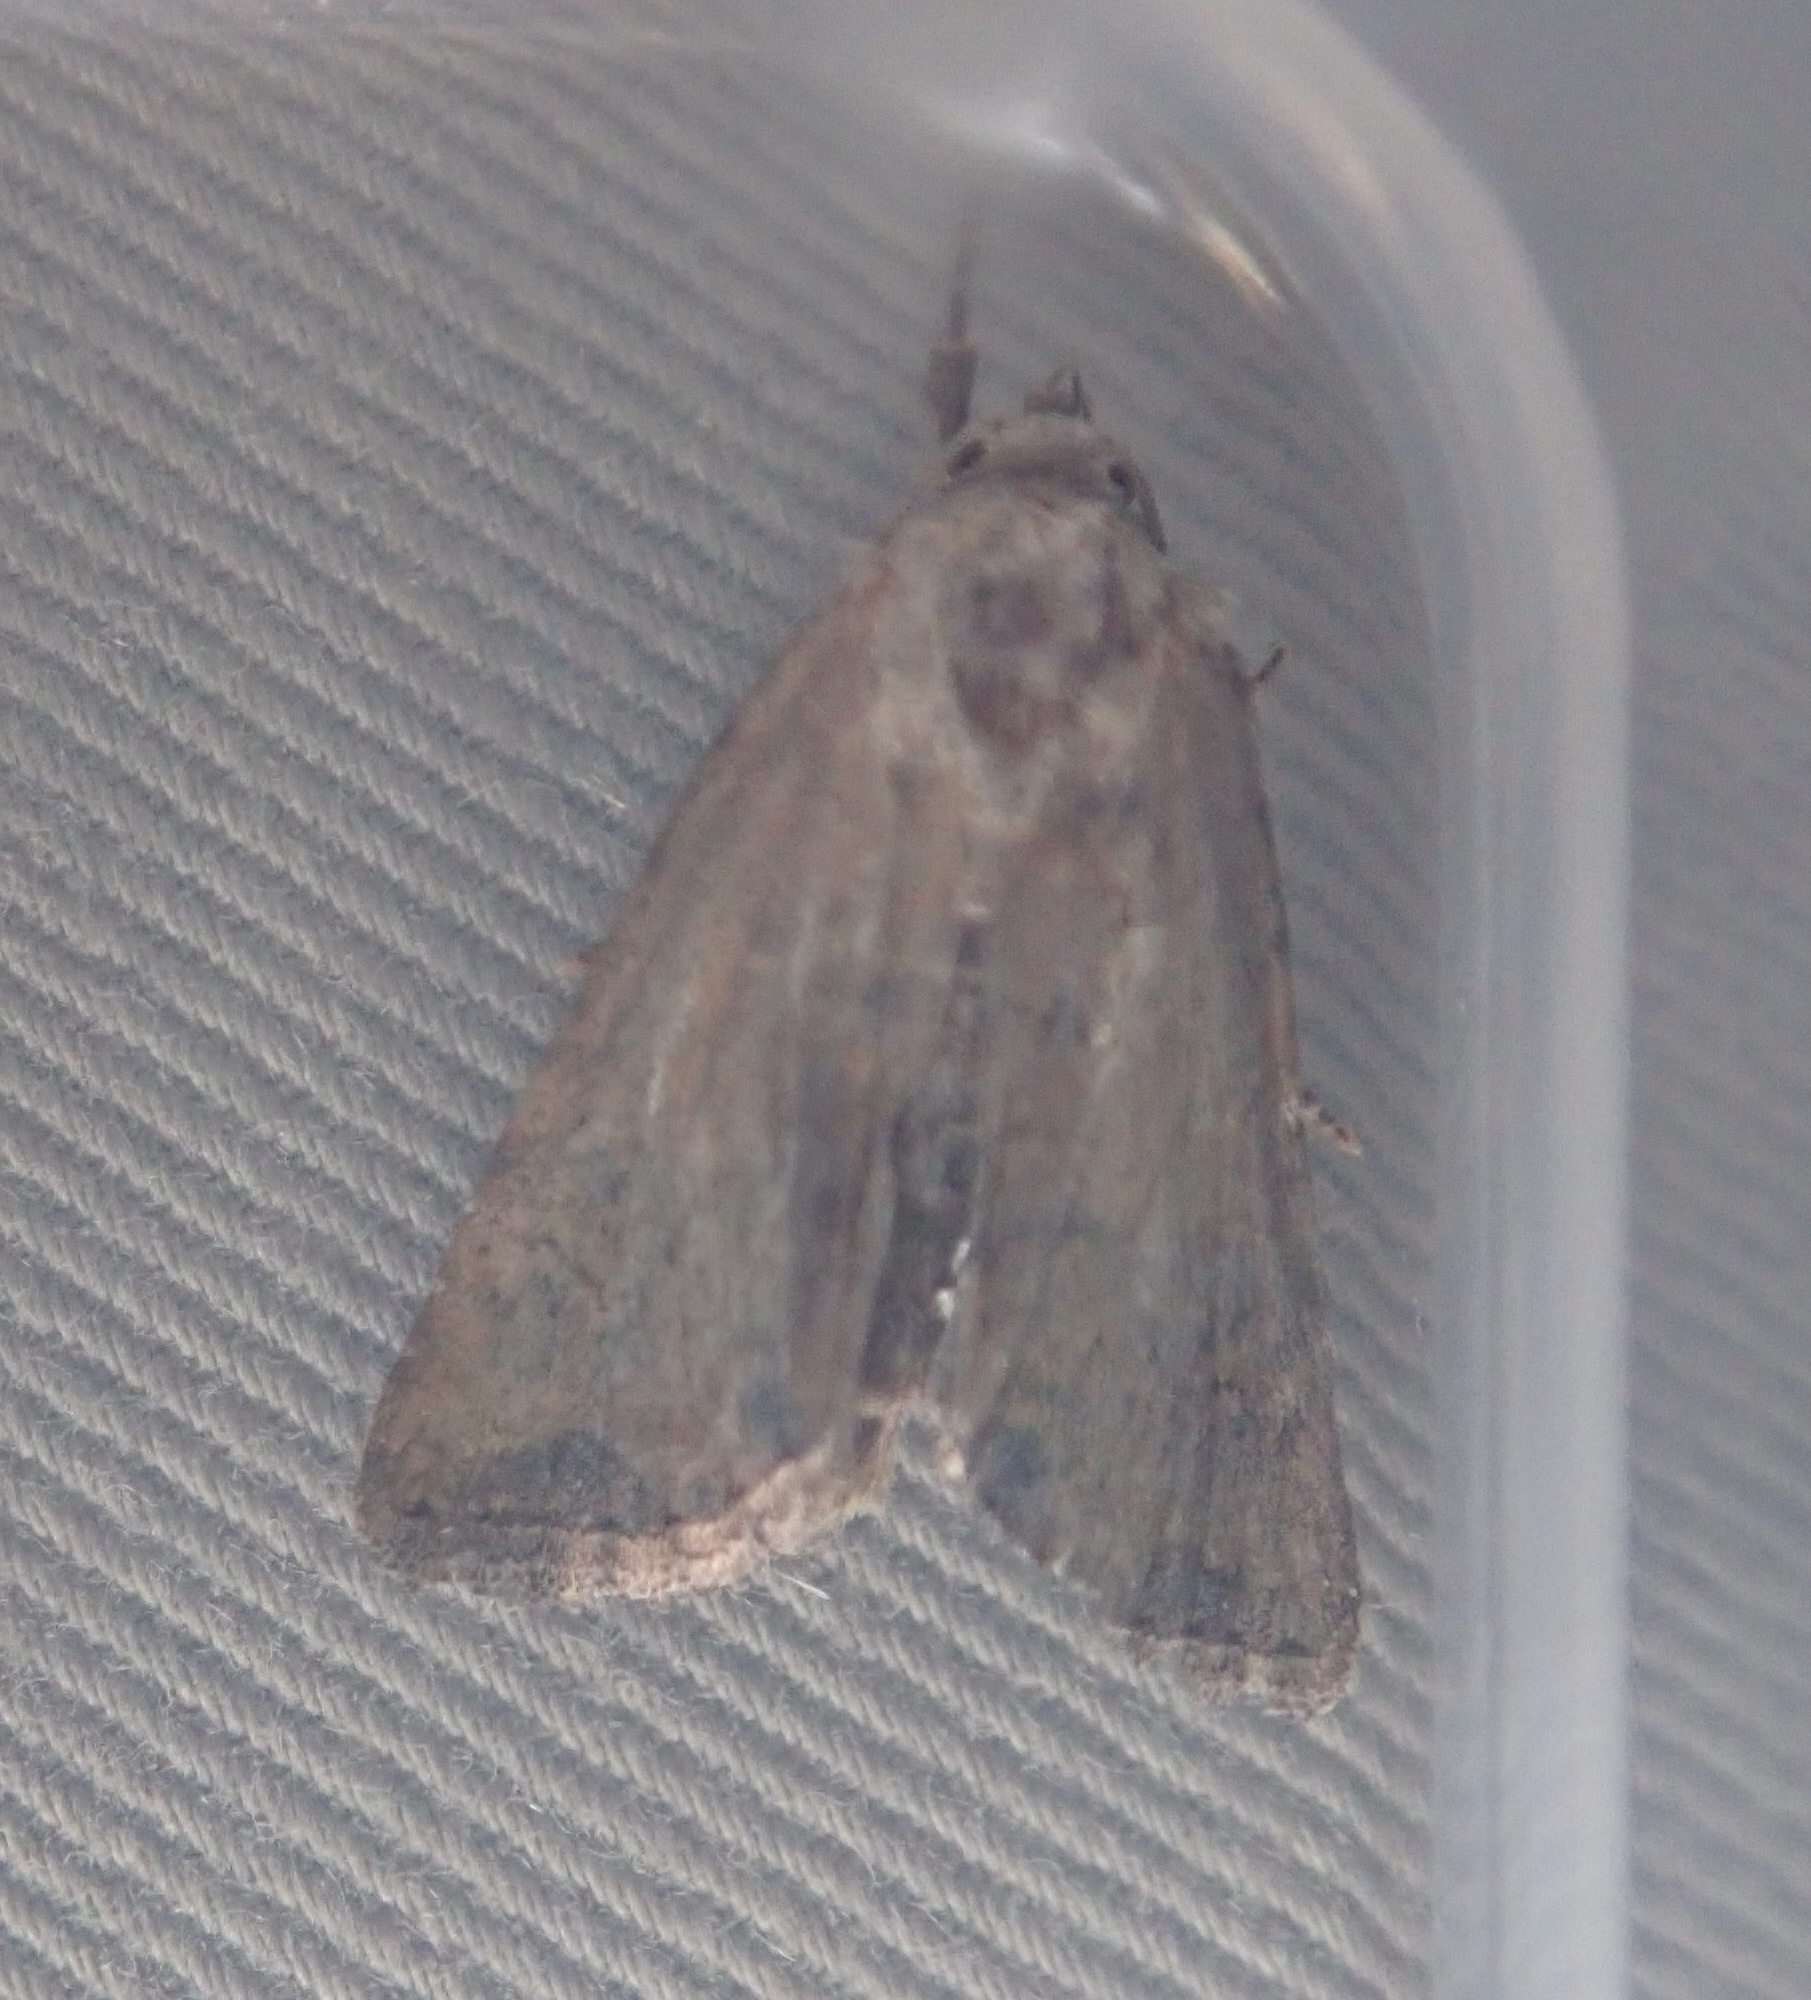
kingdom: Animalia
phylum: Arthropoda
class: Insecta
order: Lepidoptera
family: Noctuidae
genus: Mesoligia
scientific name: Mesoligia furuncula
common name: Cloaked minor
